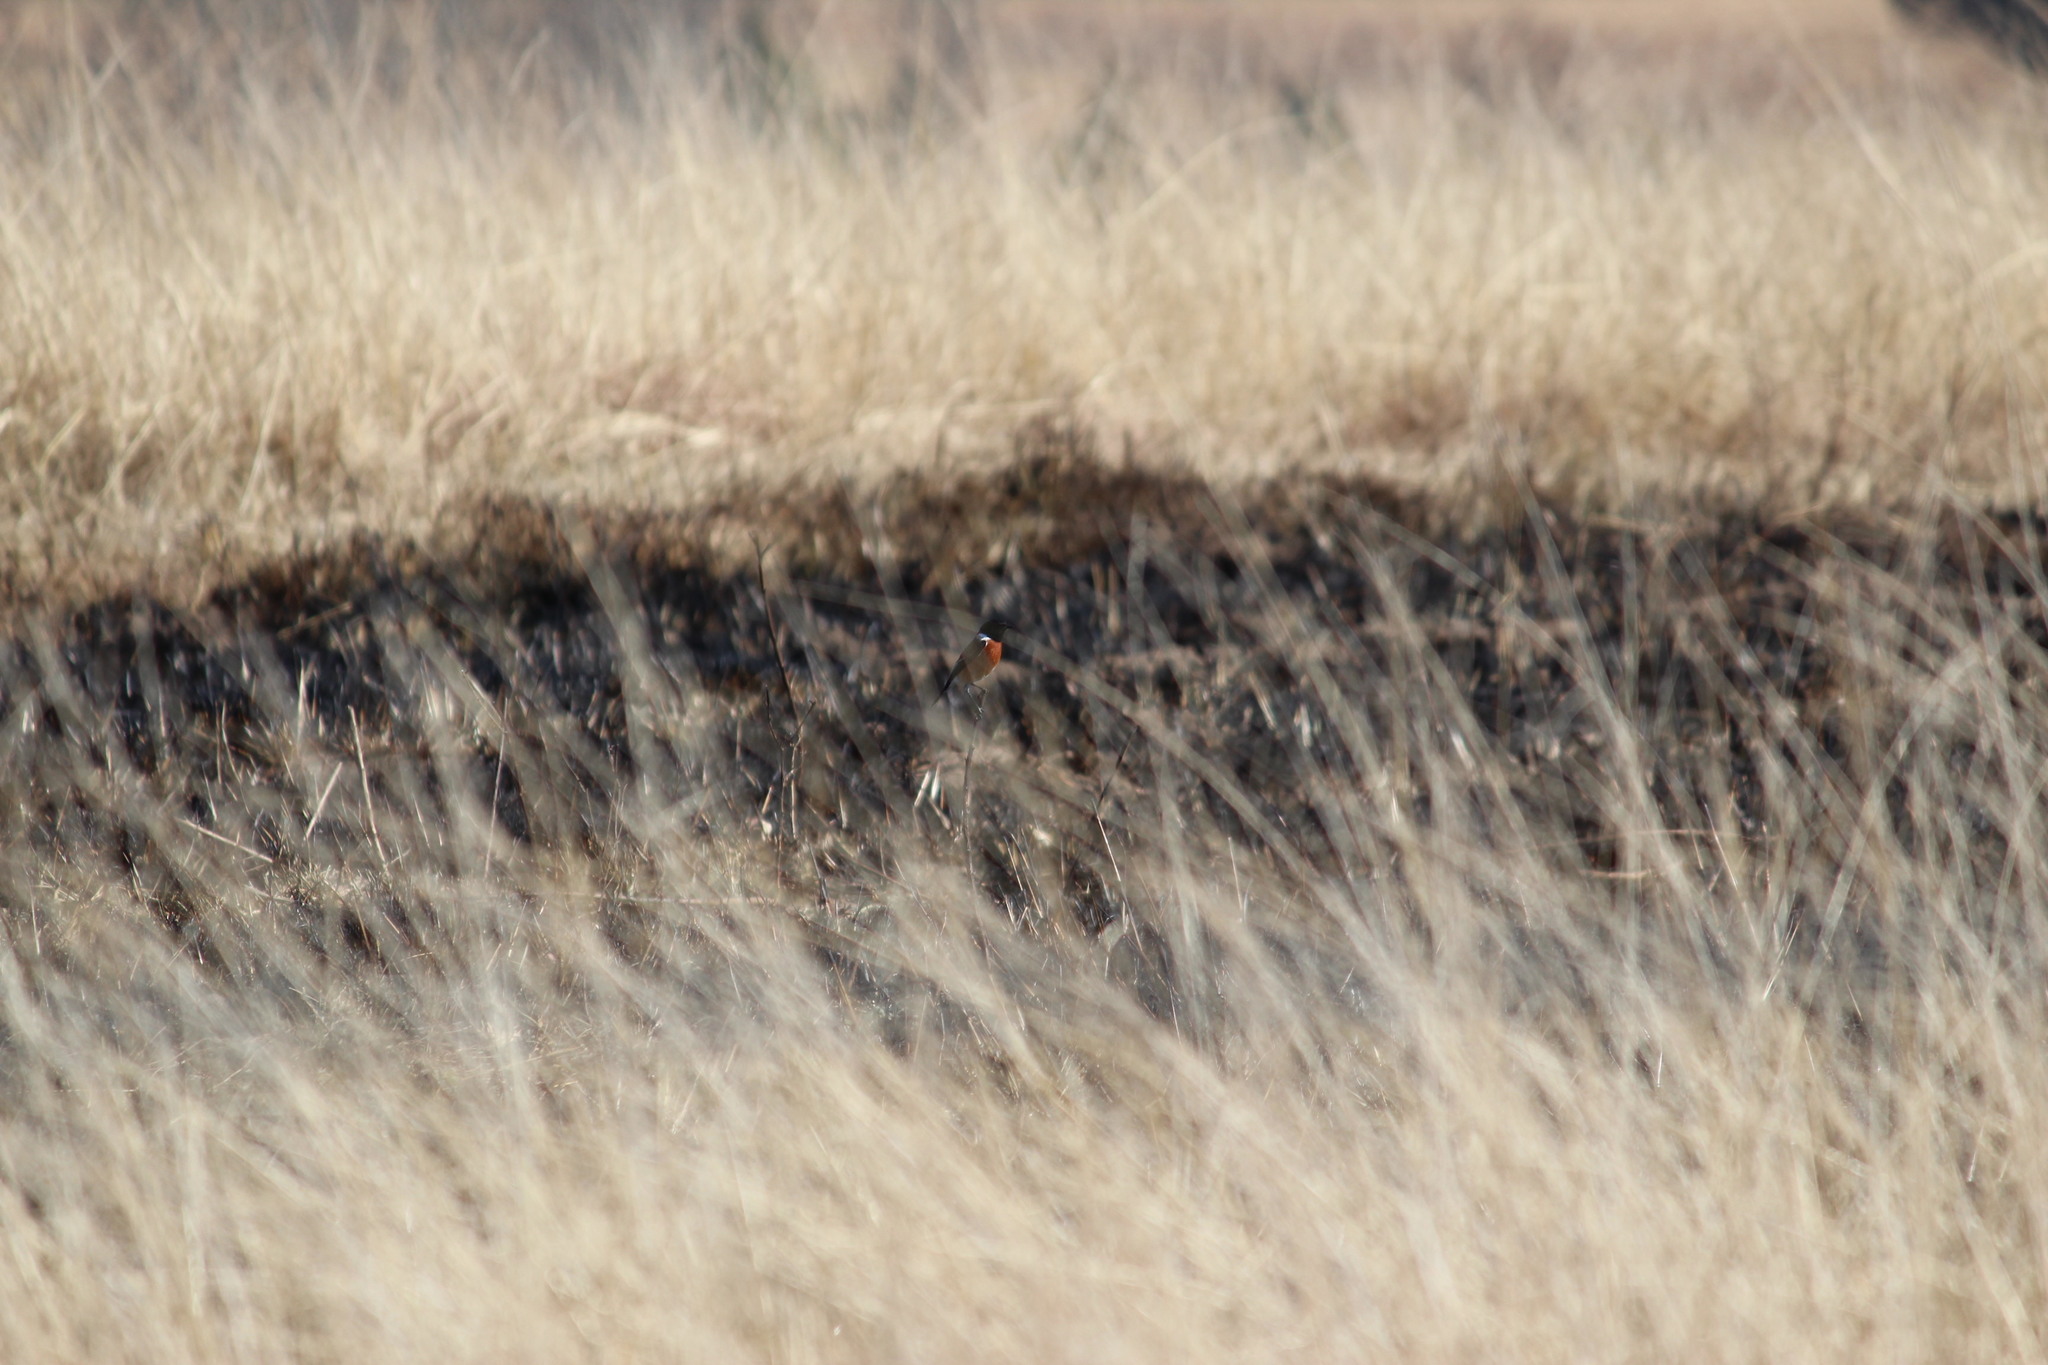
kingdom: Animalia
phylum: Chordata
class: Aves
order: Passeriformes
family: Muscicapidae
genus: Saxicola
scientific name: Saxicola torquatus
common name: African stonechat
